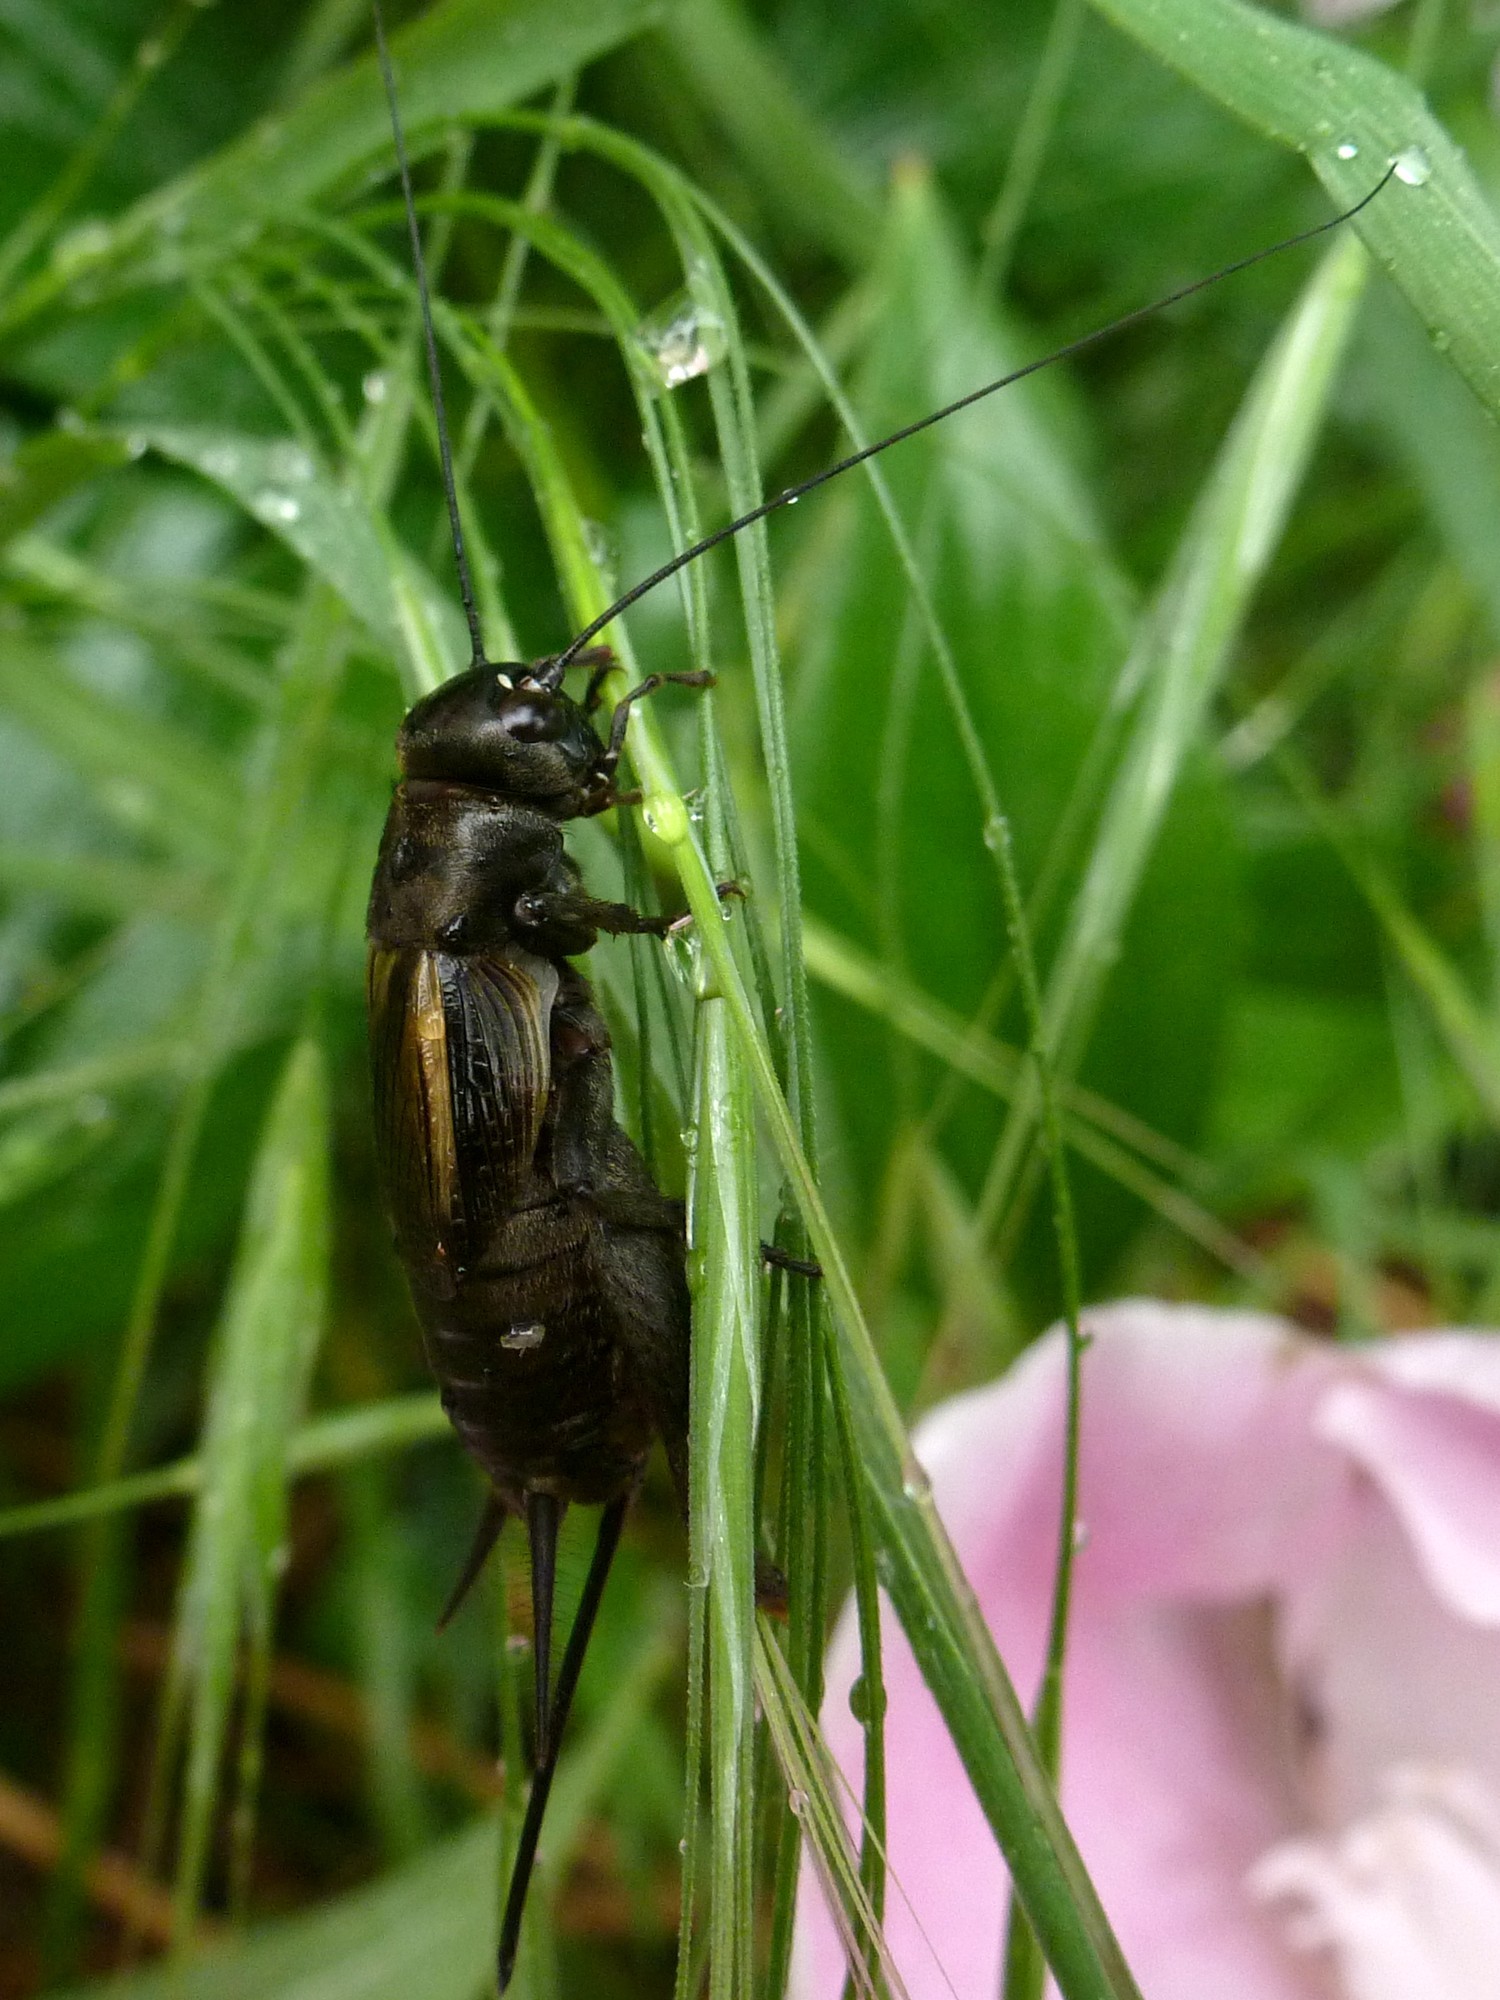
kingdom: Animalia
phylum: Arthropoda
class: Insecta
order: Orthoptera
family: Gryllidae
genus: Melanogryllus
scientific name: Melanogryllus desertus
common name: Desert cricket
